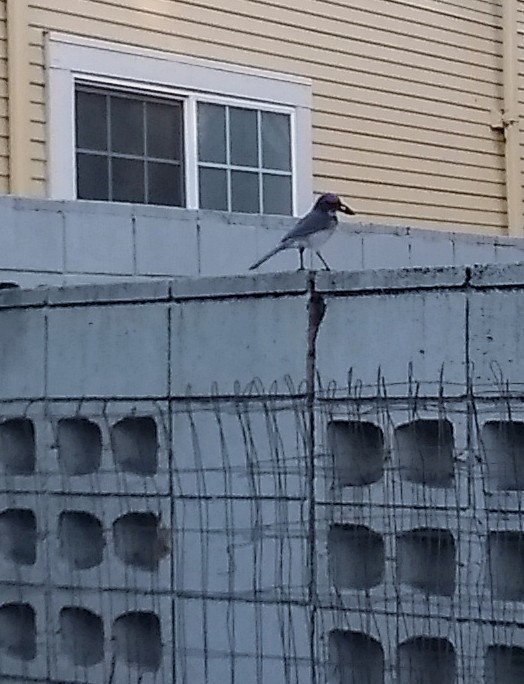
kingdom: Animalia
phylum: Chordata
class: Aves
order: Passeriformes
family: Corvidae
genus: Aphelocoma
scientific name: Aphelocoma californica
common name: California scrub-jay
